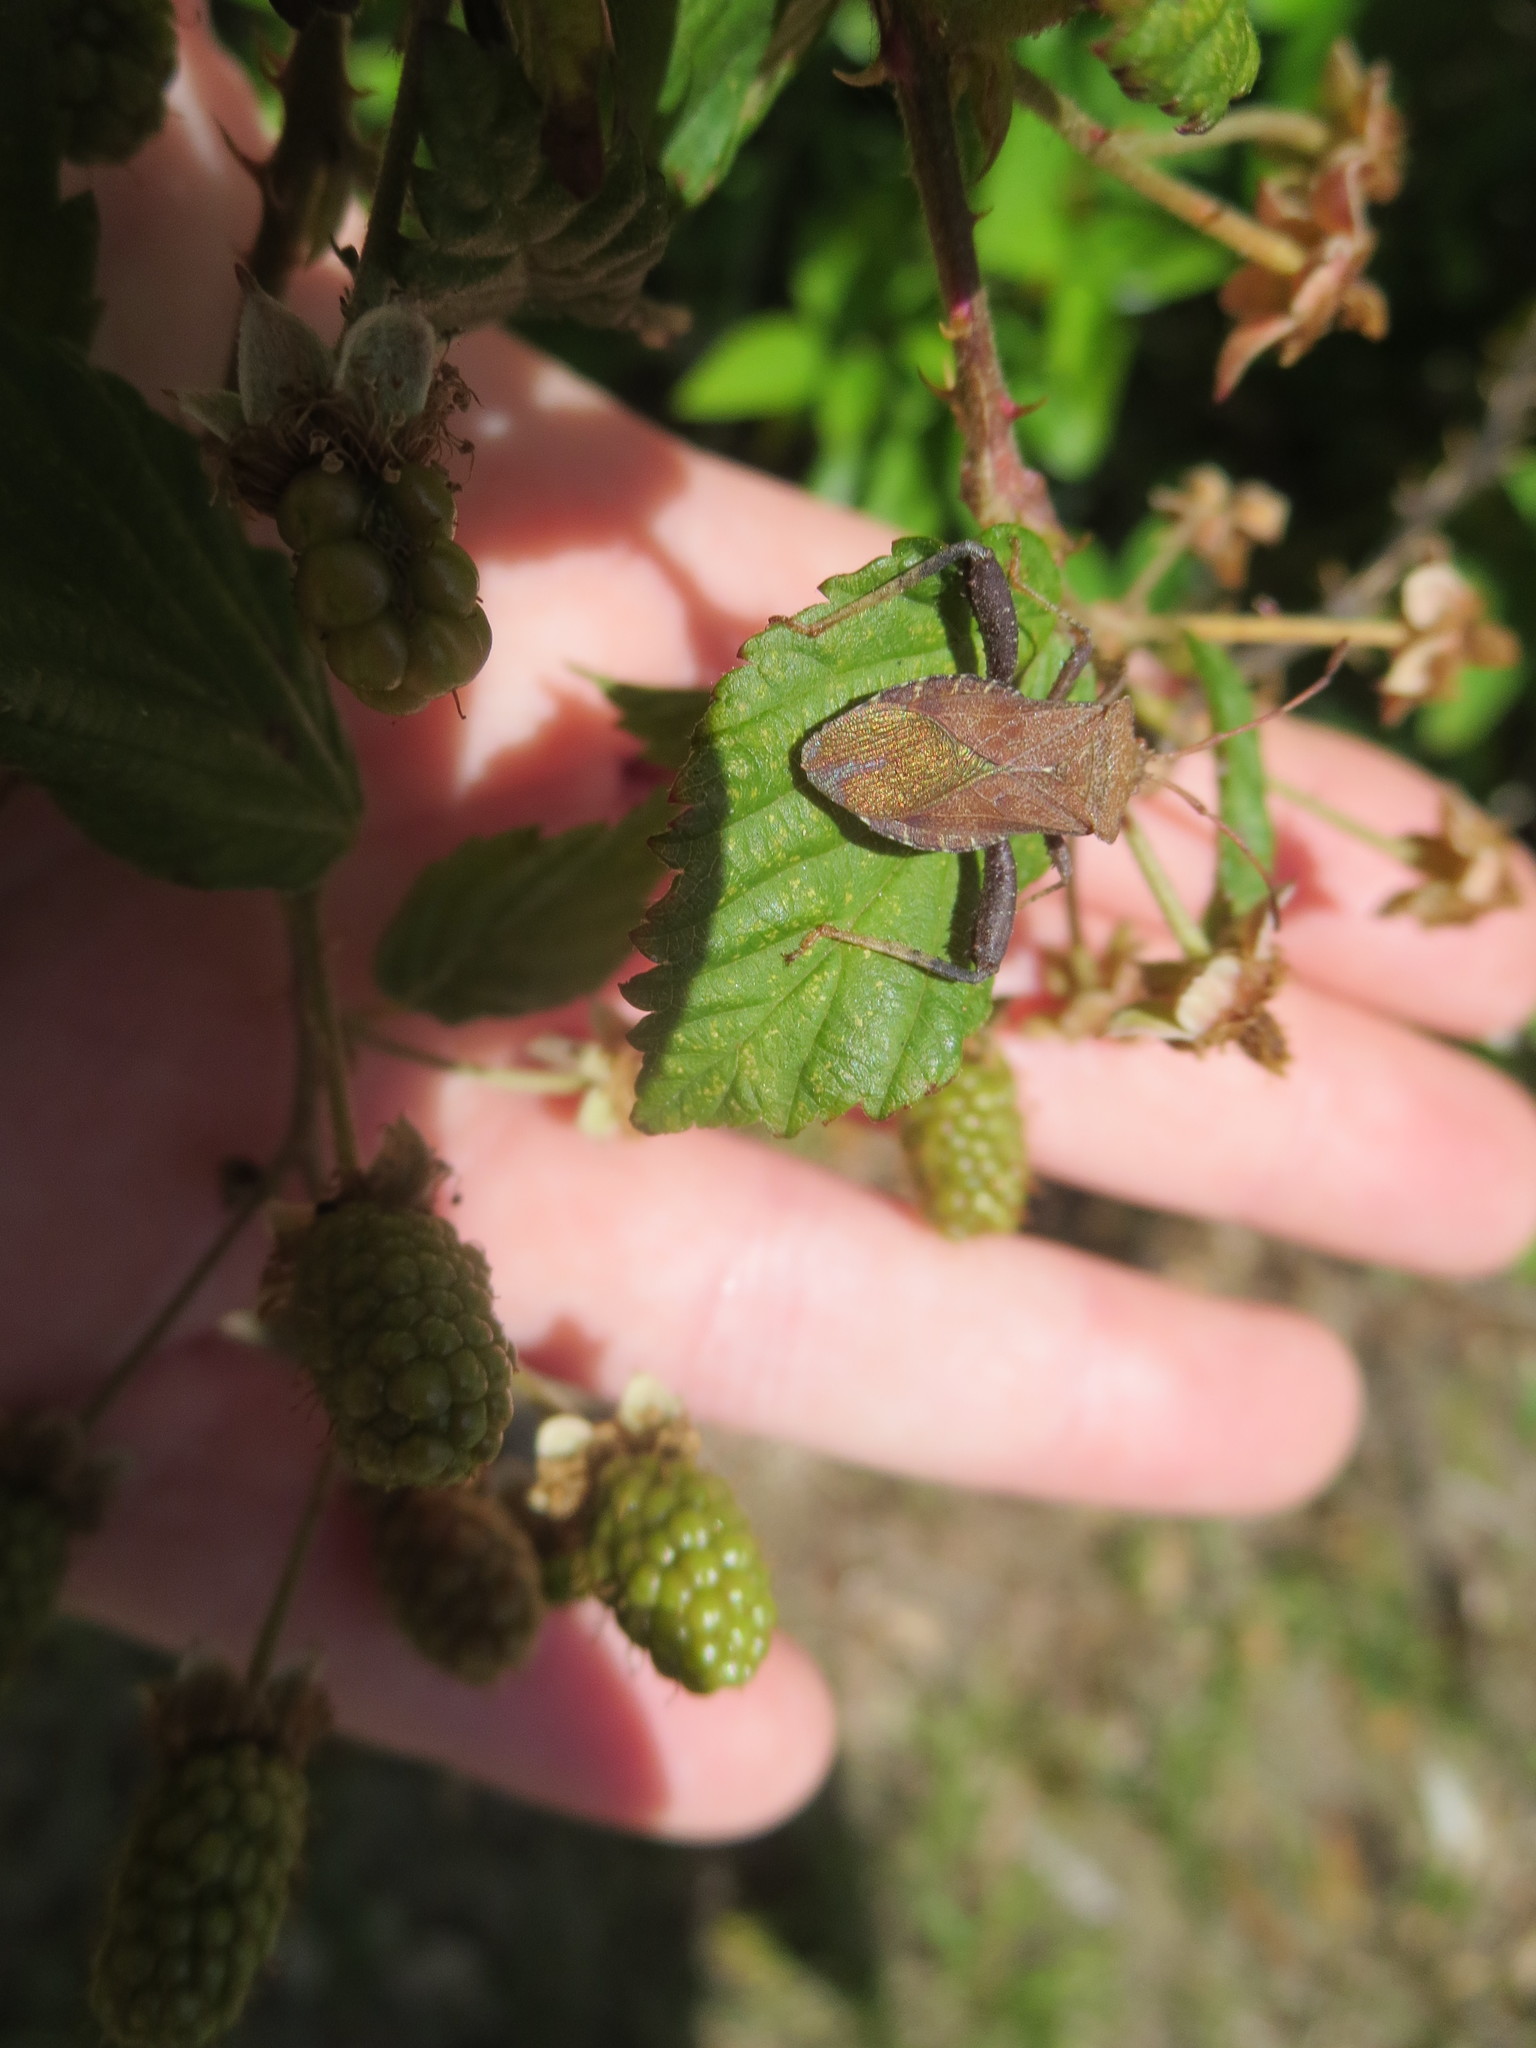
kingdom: Animalia
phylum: Arthropoda
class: Insecta
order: Hemiptera
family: Coreidae
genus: Euthochtha
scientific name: Euthochtha galeator
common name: Helmeted squash bug
